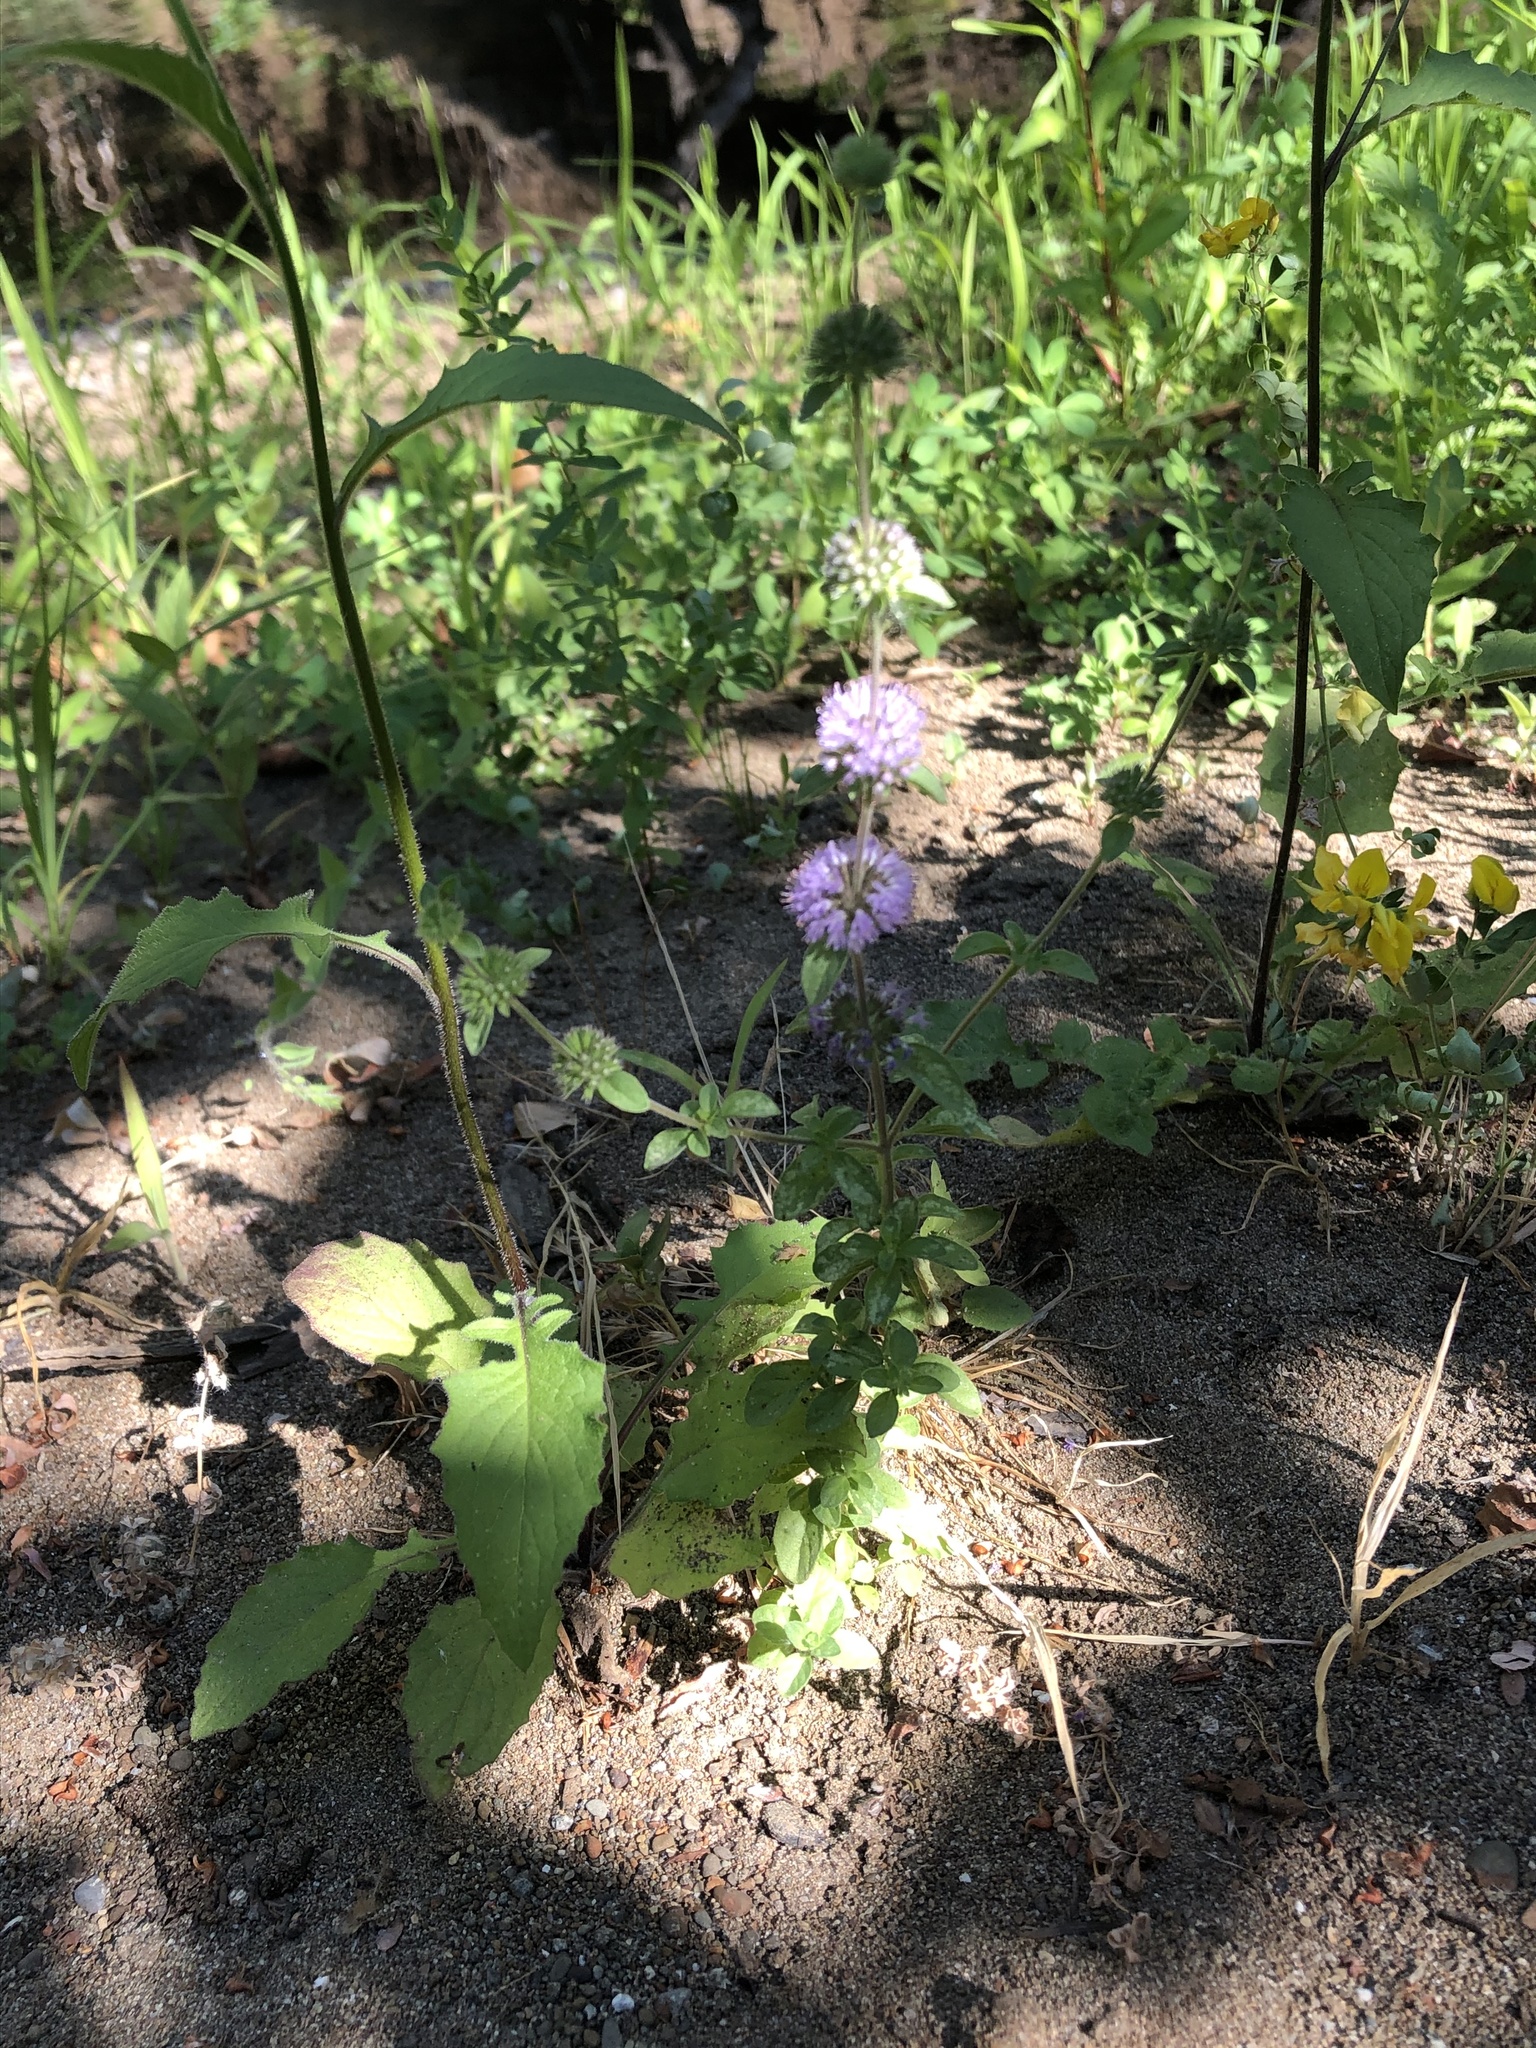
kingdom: Plantae
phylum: Tracheophyta
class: Magnoliopsida
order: Lamiales
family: Lamiaceae
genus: Mentha
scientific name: Mentha pulegium
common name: Pennyroyal
